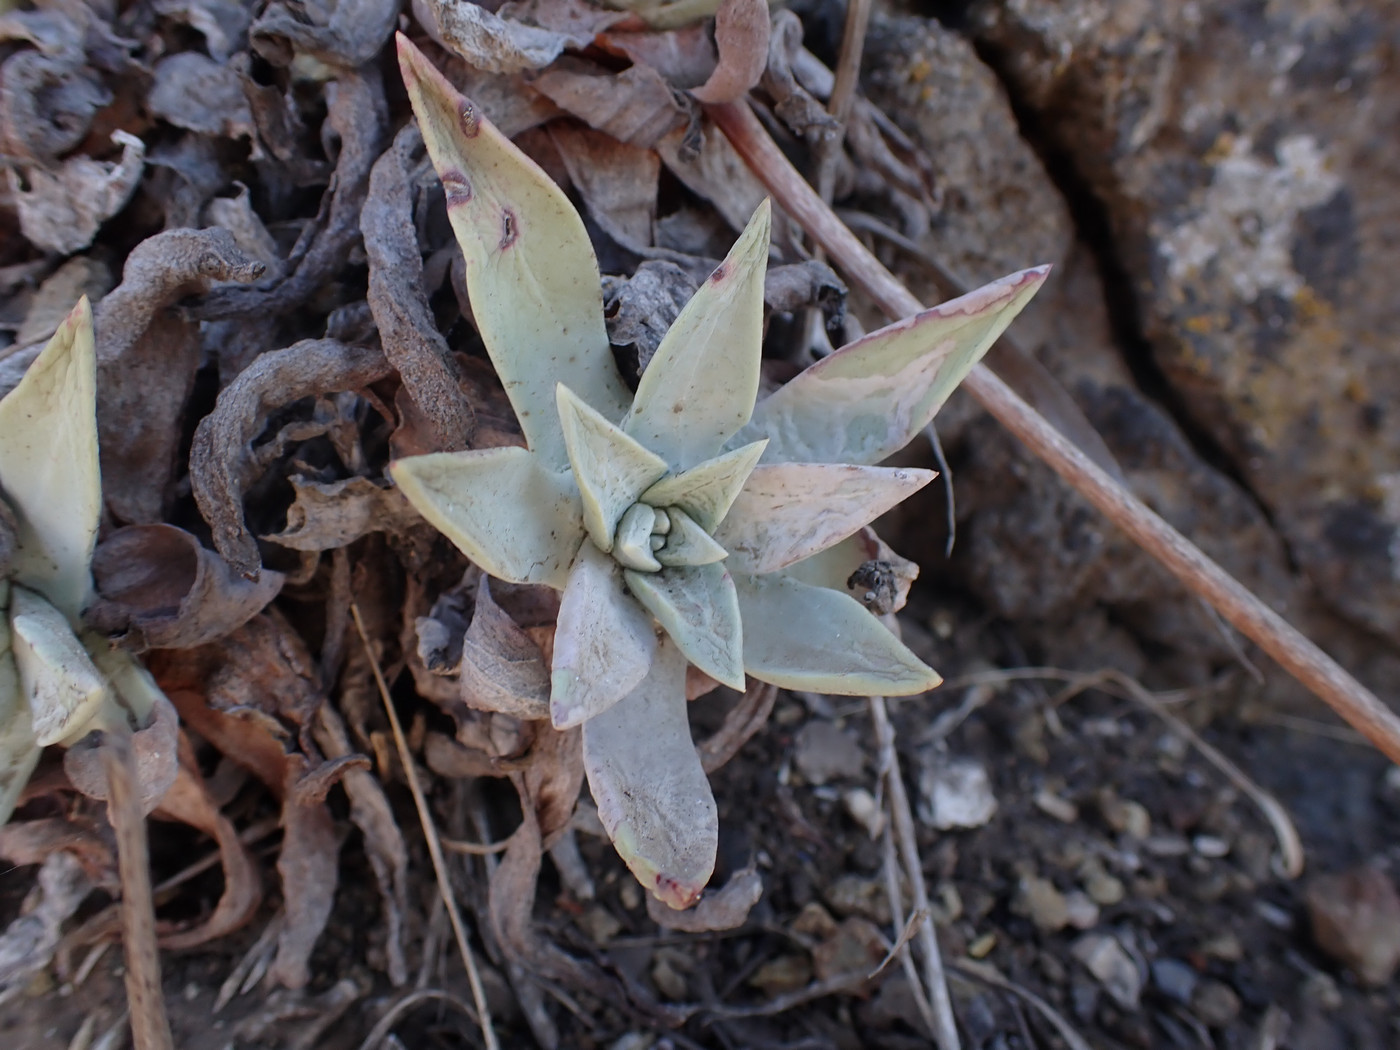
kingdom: Plantae
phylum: Tracheophyta
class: Magnoliopsida
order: Saxifragales
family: Crassulaceae
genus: Dudleya
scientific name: Dudleya greenei
